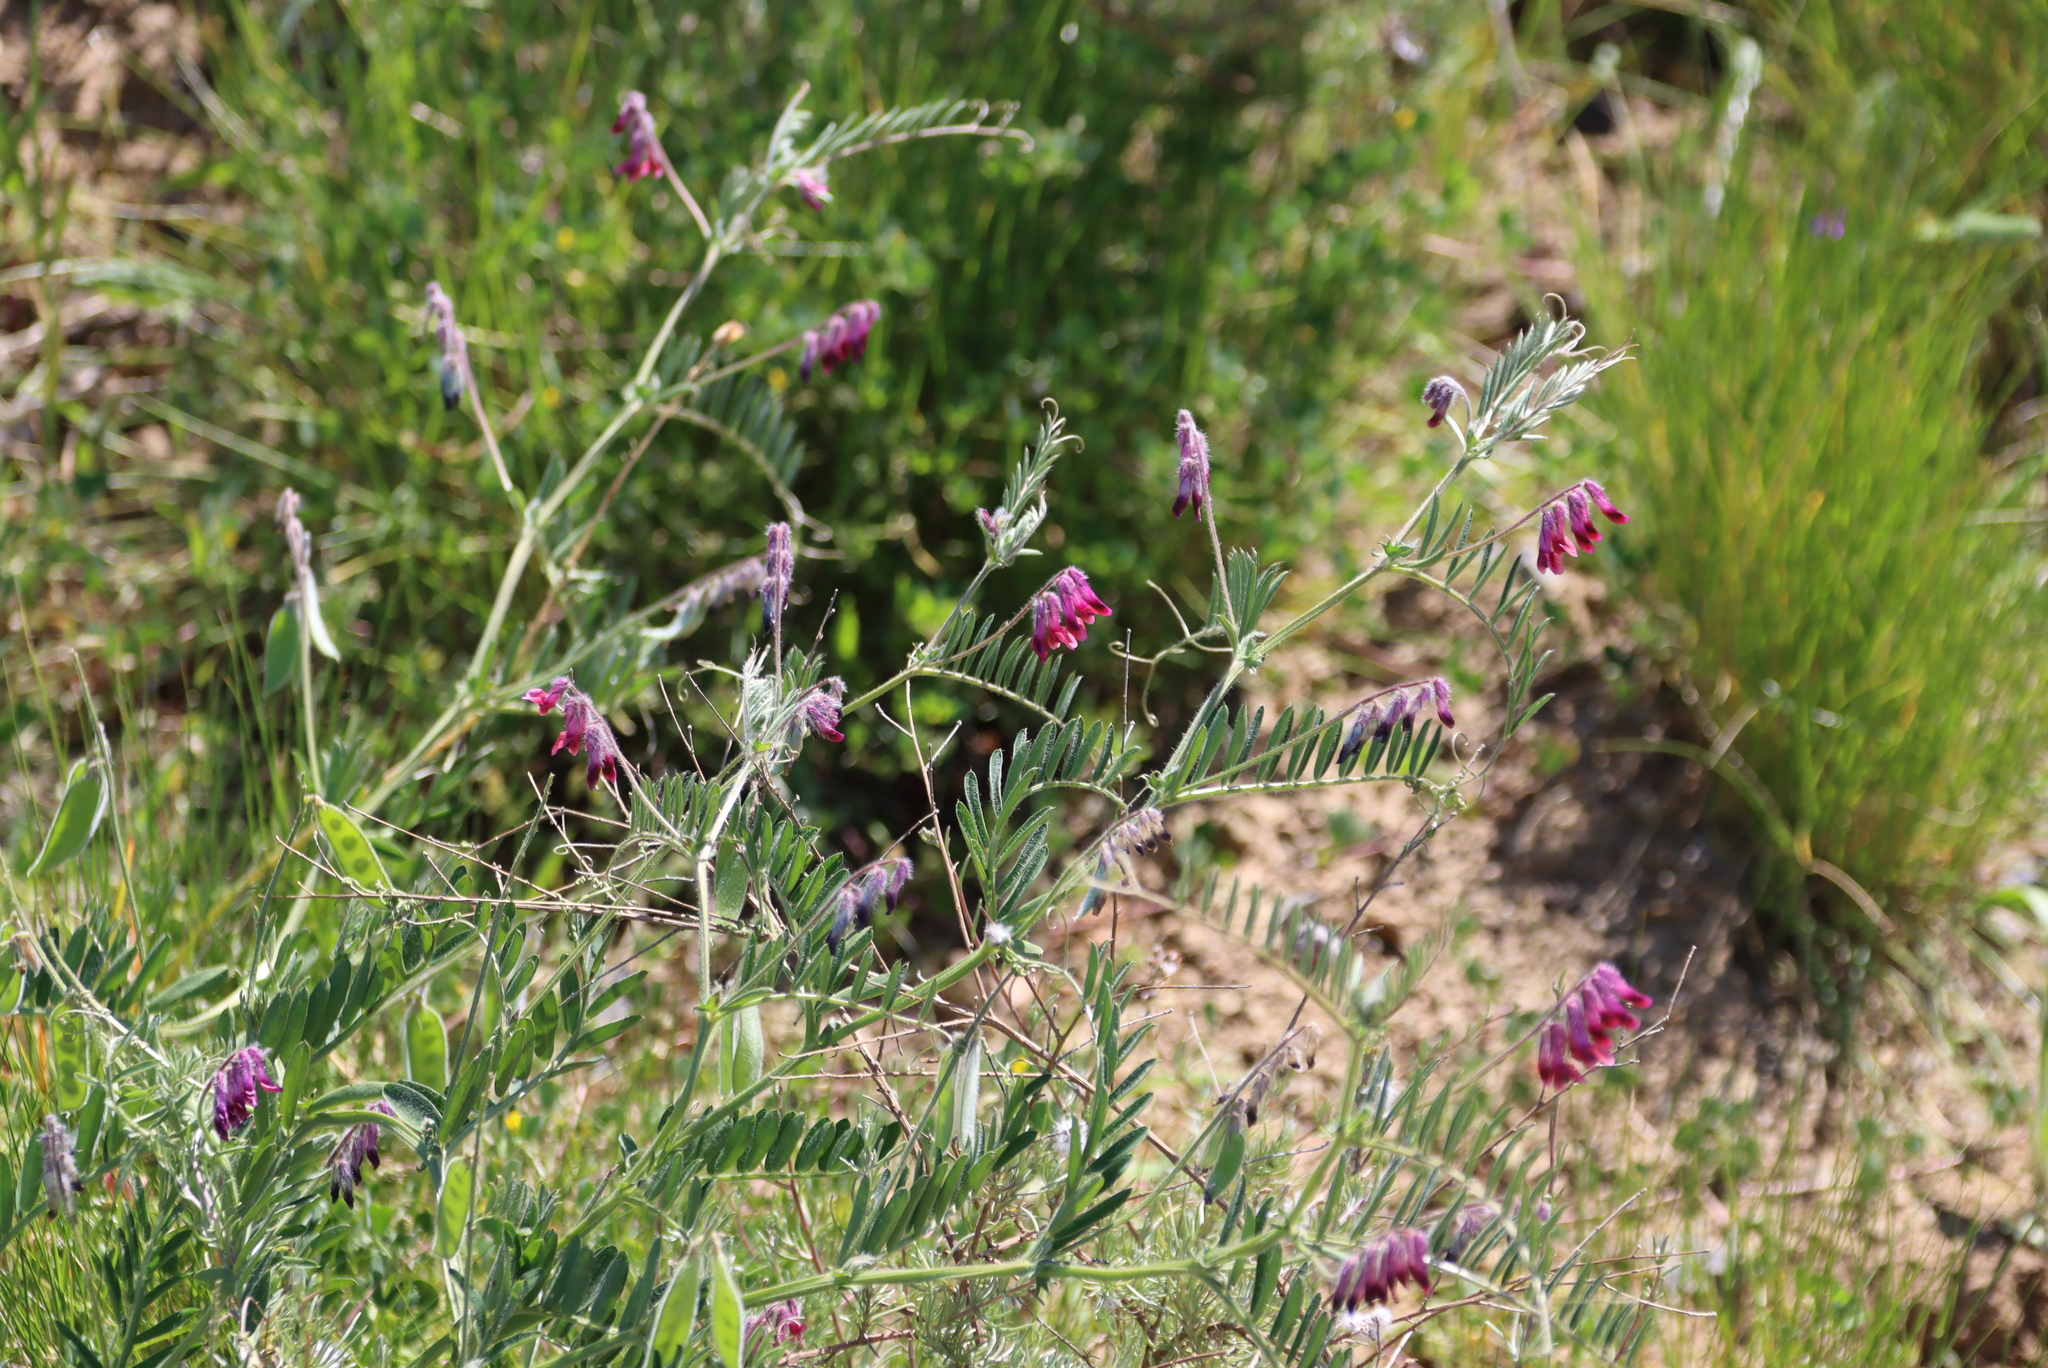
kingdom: Plantae
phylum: Tracheophyta
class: Magnoliopsida
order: Fabales
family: Fabaceae
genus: Vicia
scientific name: Vicia benghalensis
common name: Purple vetch
